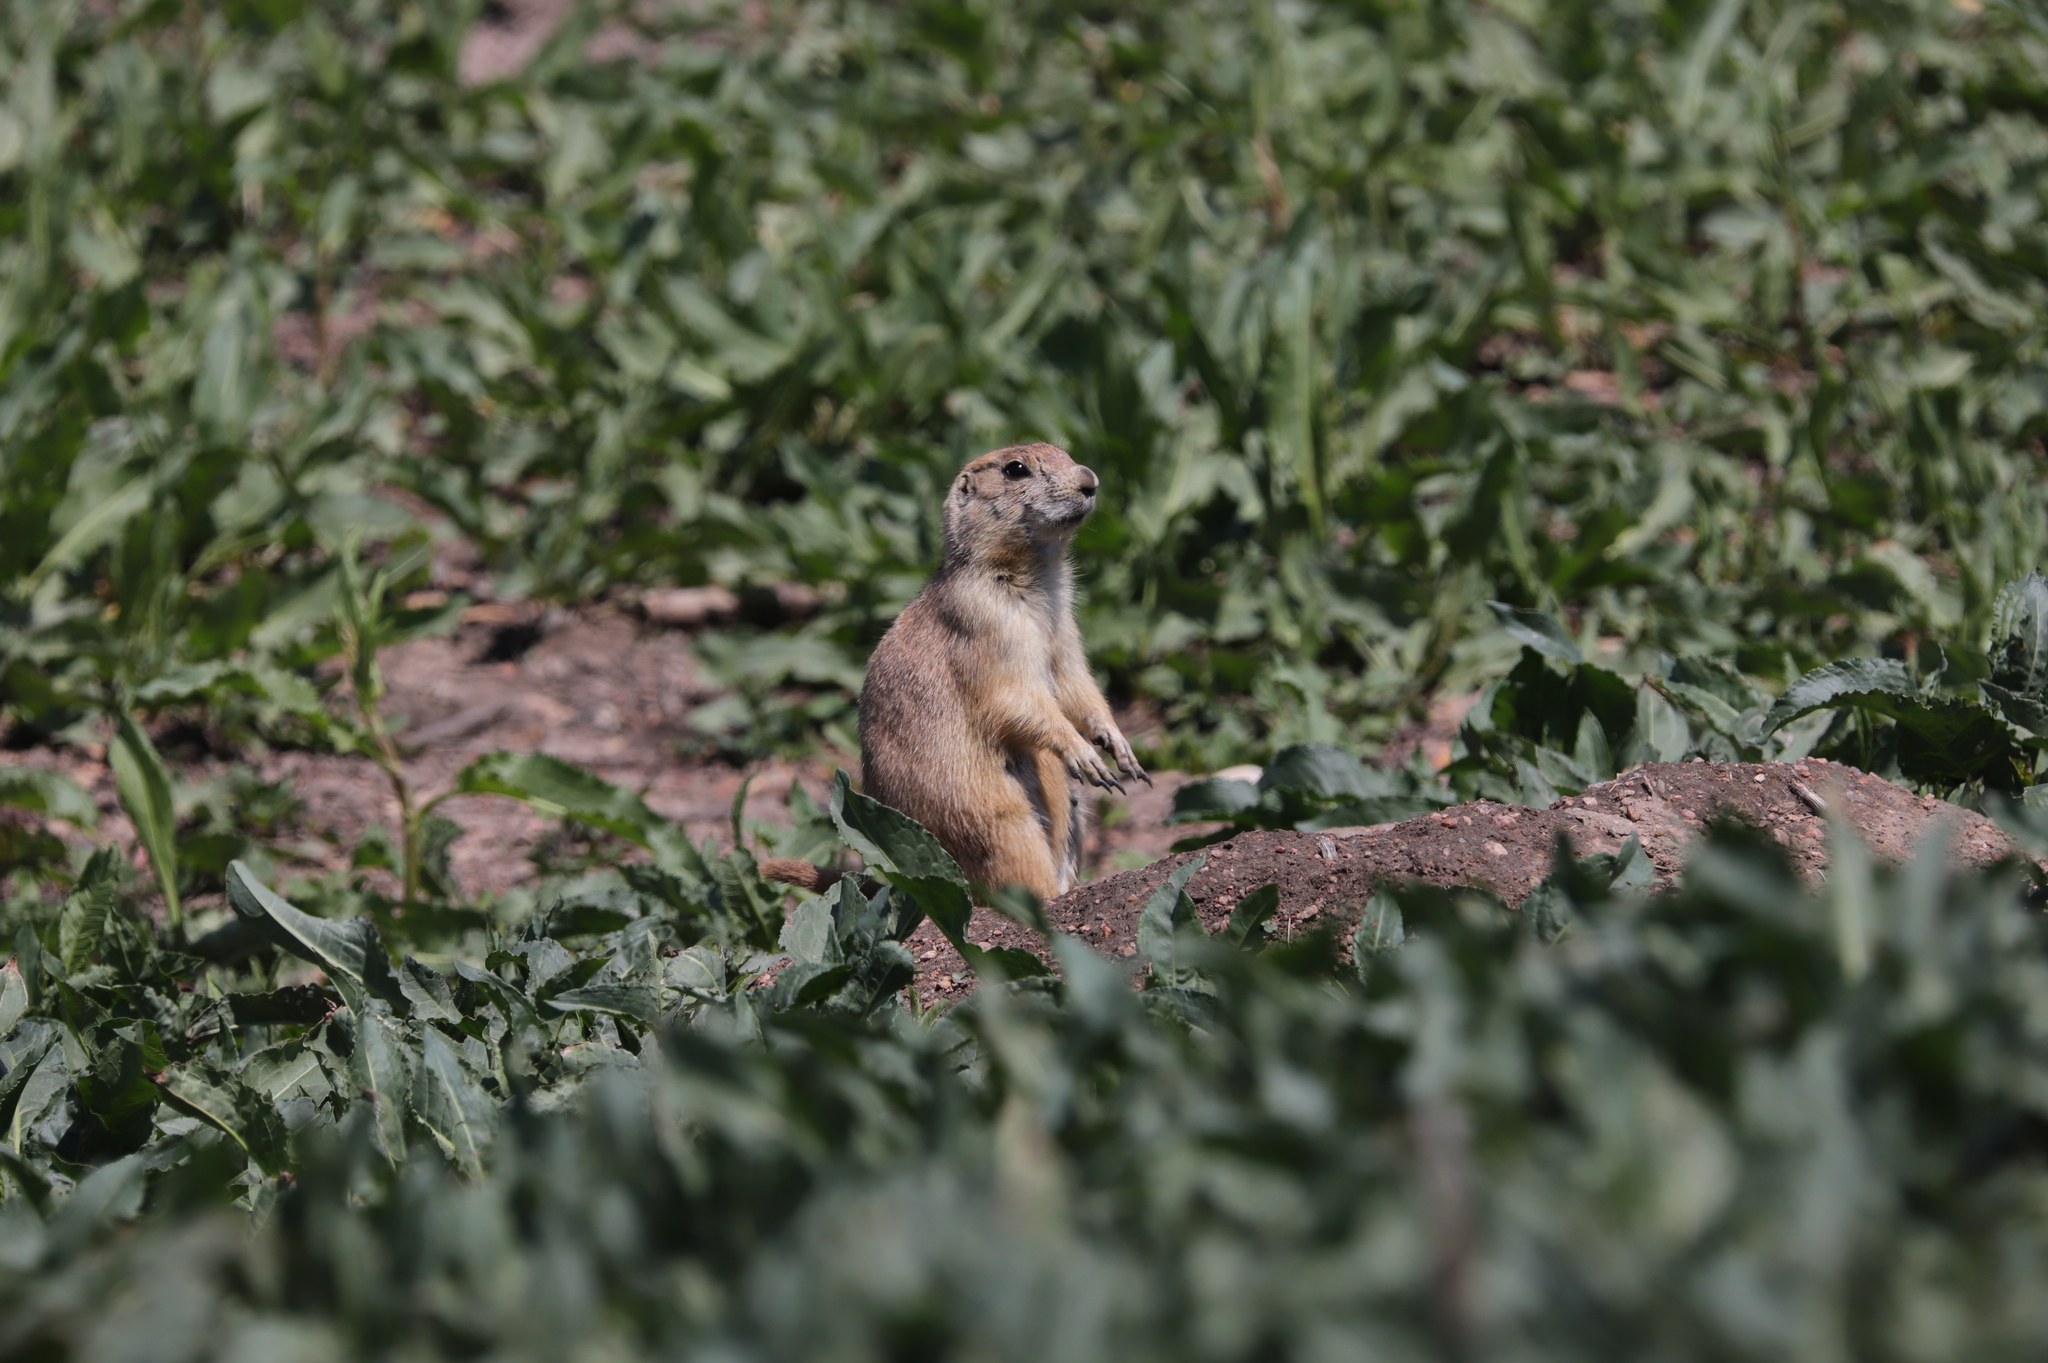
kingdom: Animalia
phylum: Chordata
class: Mammalia
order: Rodentia
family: Sciuridae
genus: Cynomys
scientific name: Cynomys ludovicianus
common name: Black-tailed prairie dog
